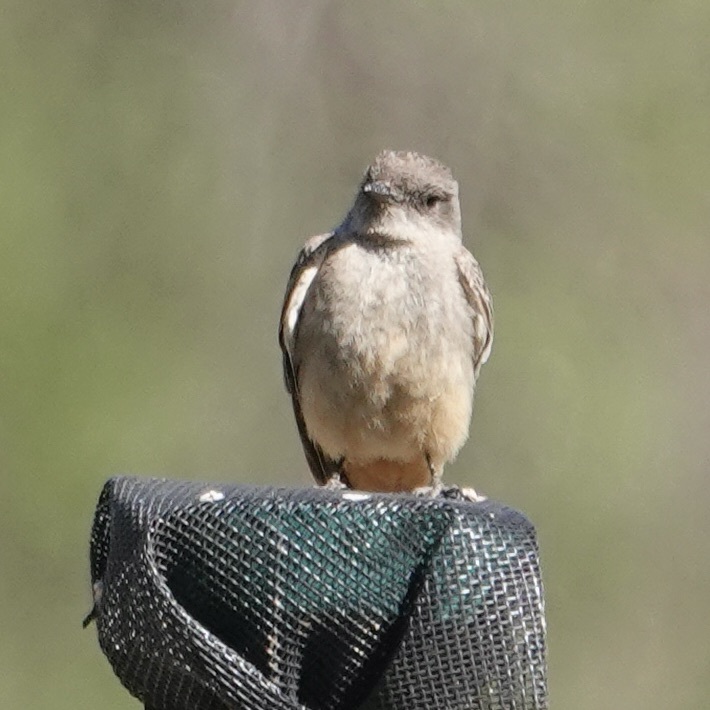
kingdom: Animalia
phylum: Chordata
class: Aves
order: Passeriformes
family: Tyrannidae
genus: Sayornis
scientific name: Sayornis saya
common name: Say's phoebe
